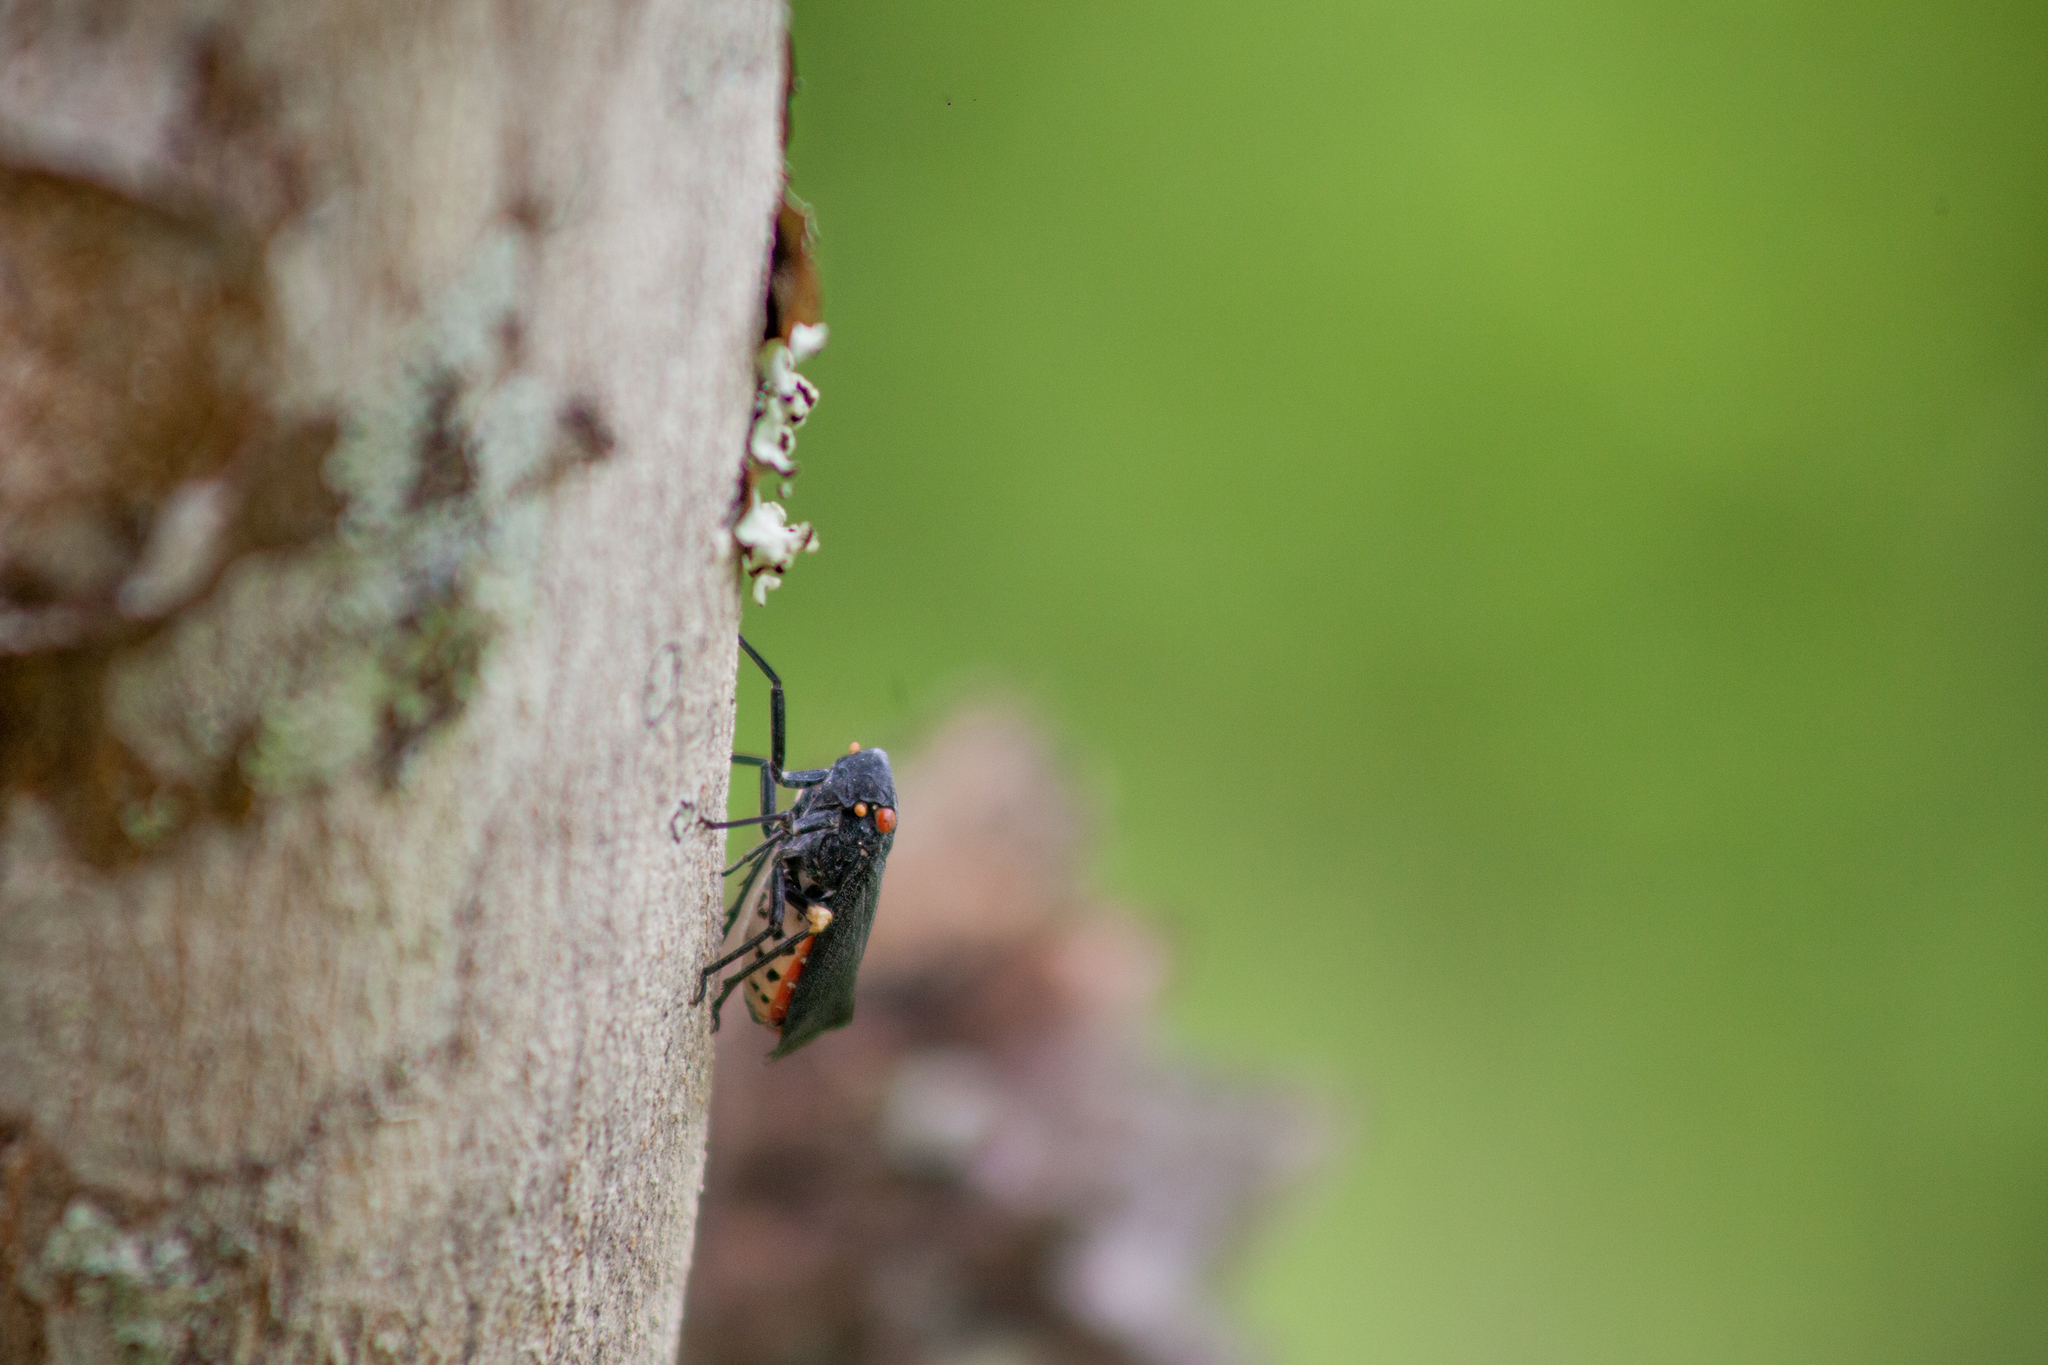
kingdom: Animalia
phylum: Arthropoda
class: Insecta
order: Hemiptera
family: Fulgoridae
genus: Acraephia
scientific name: Acraephia perspicillata
